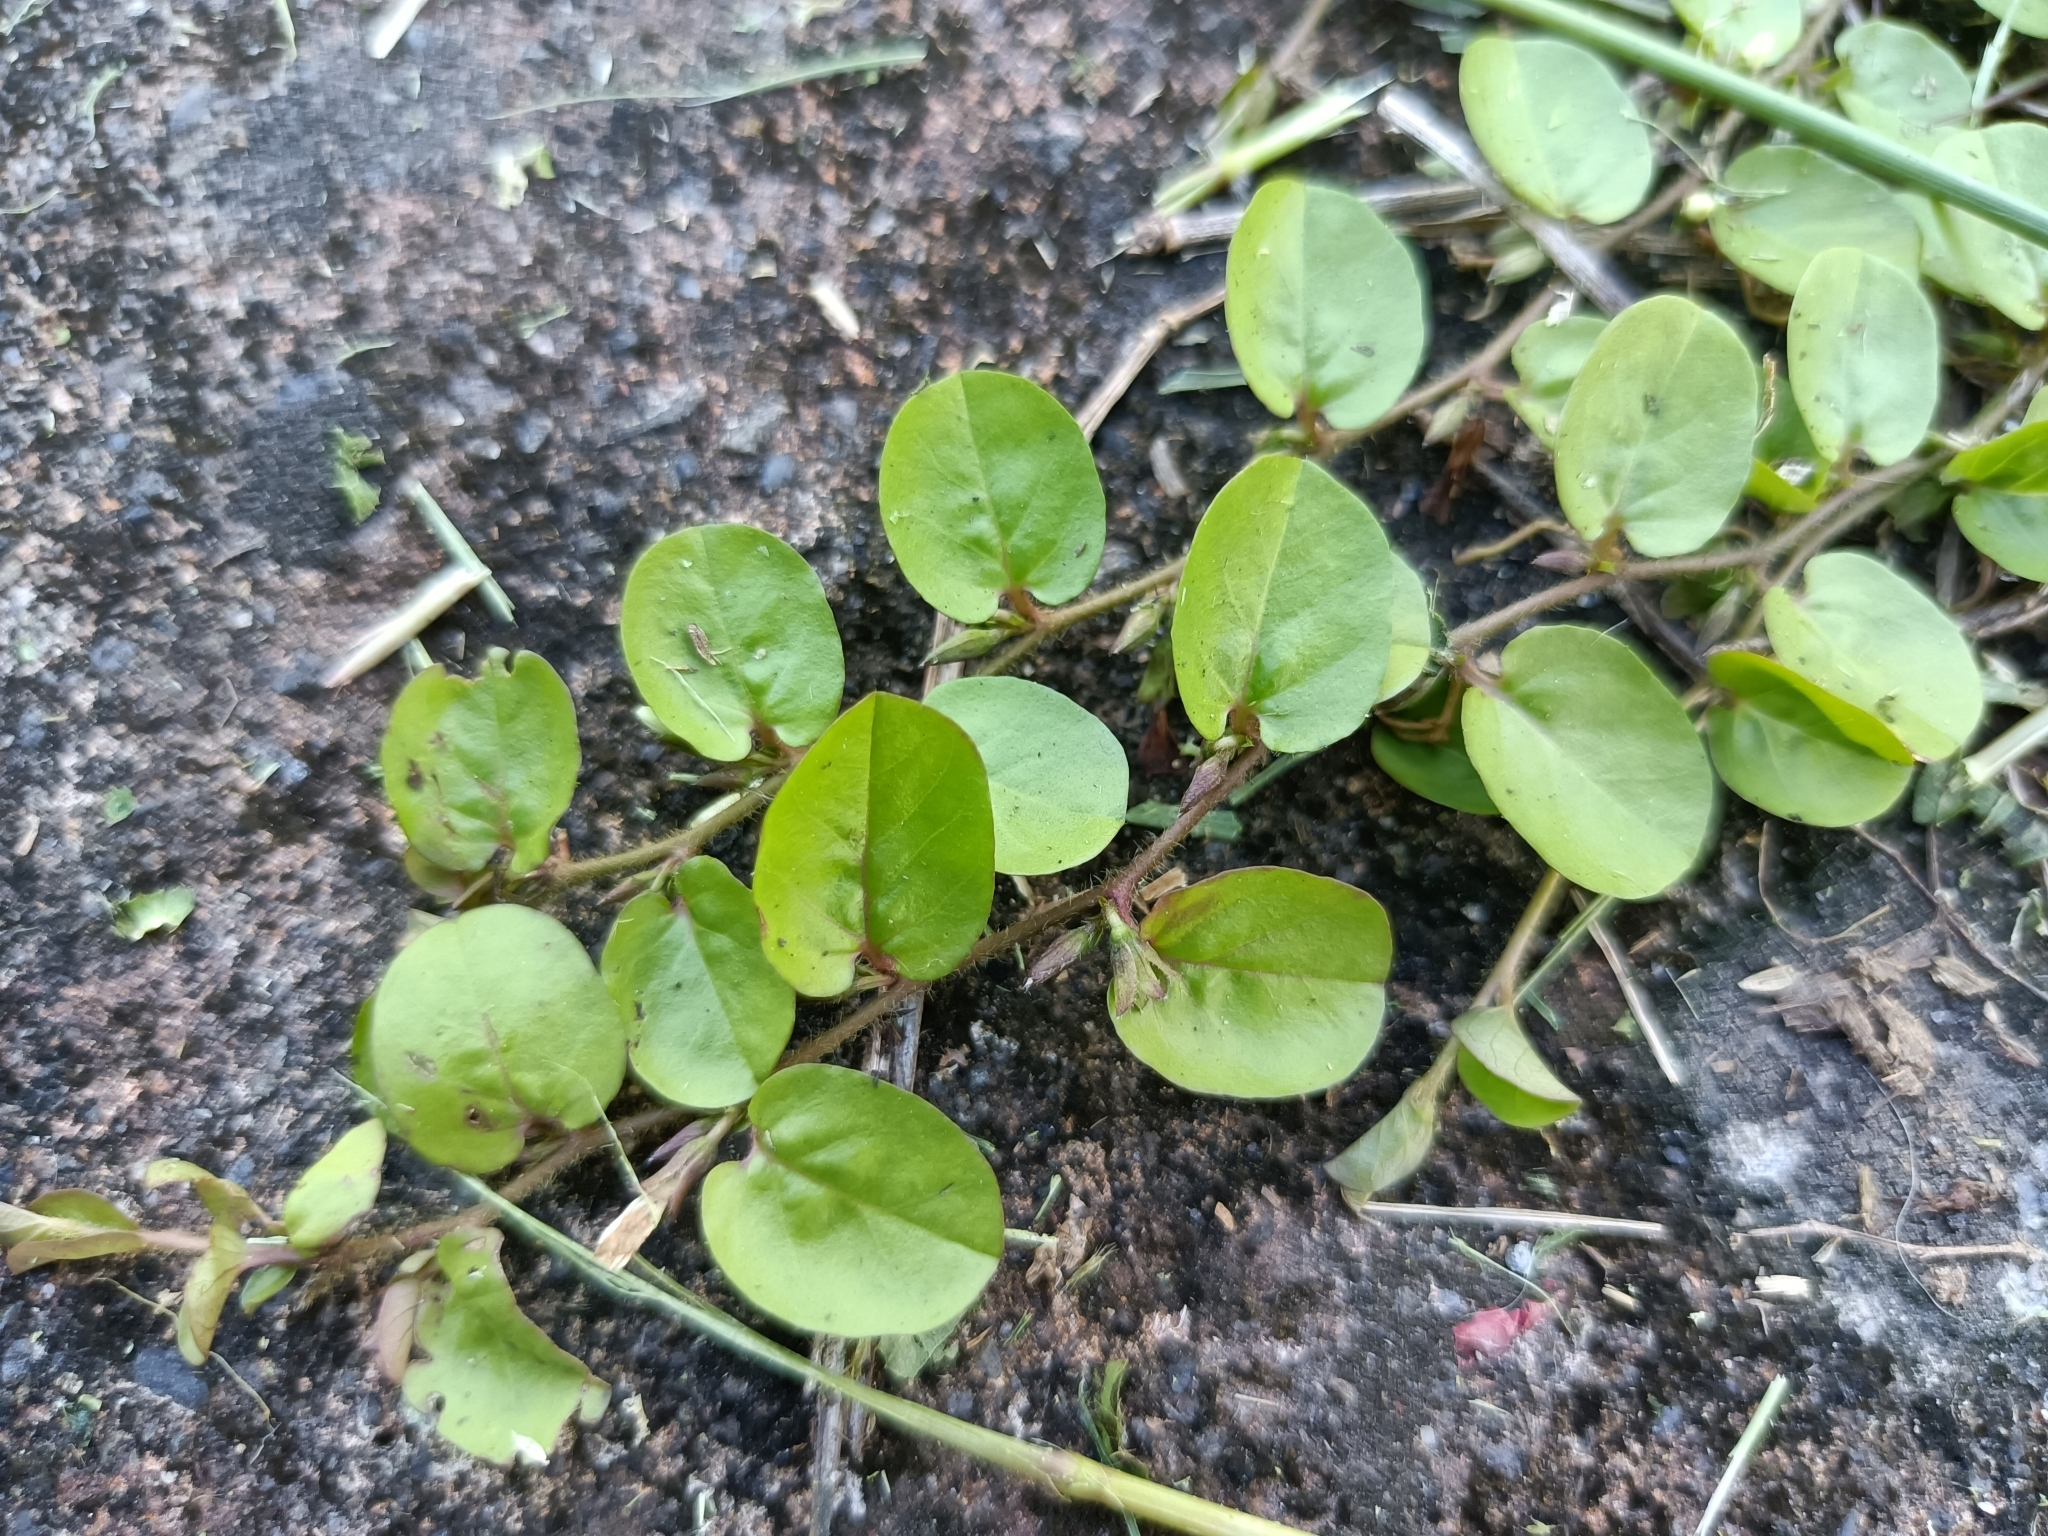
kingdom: Plantae
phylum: Tracheophyta
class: Magnoliopsida
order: Solanales
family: Convolvulaceae
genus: Evolvulus
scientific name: Evolvulus nummularius
